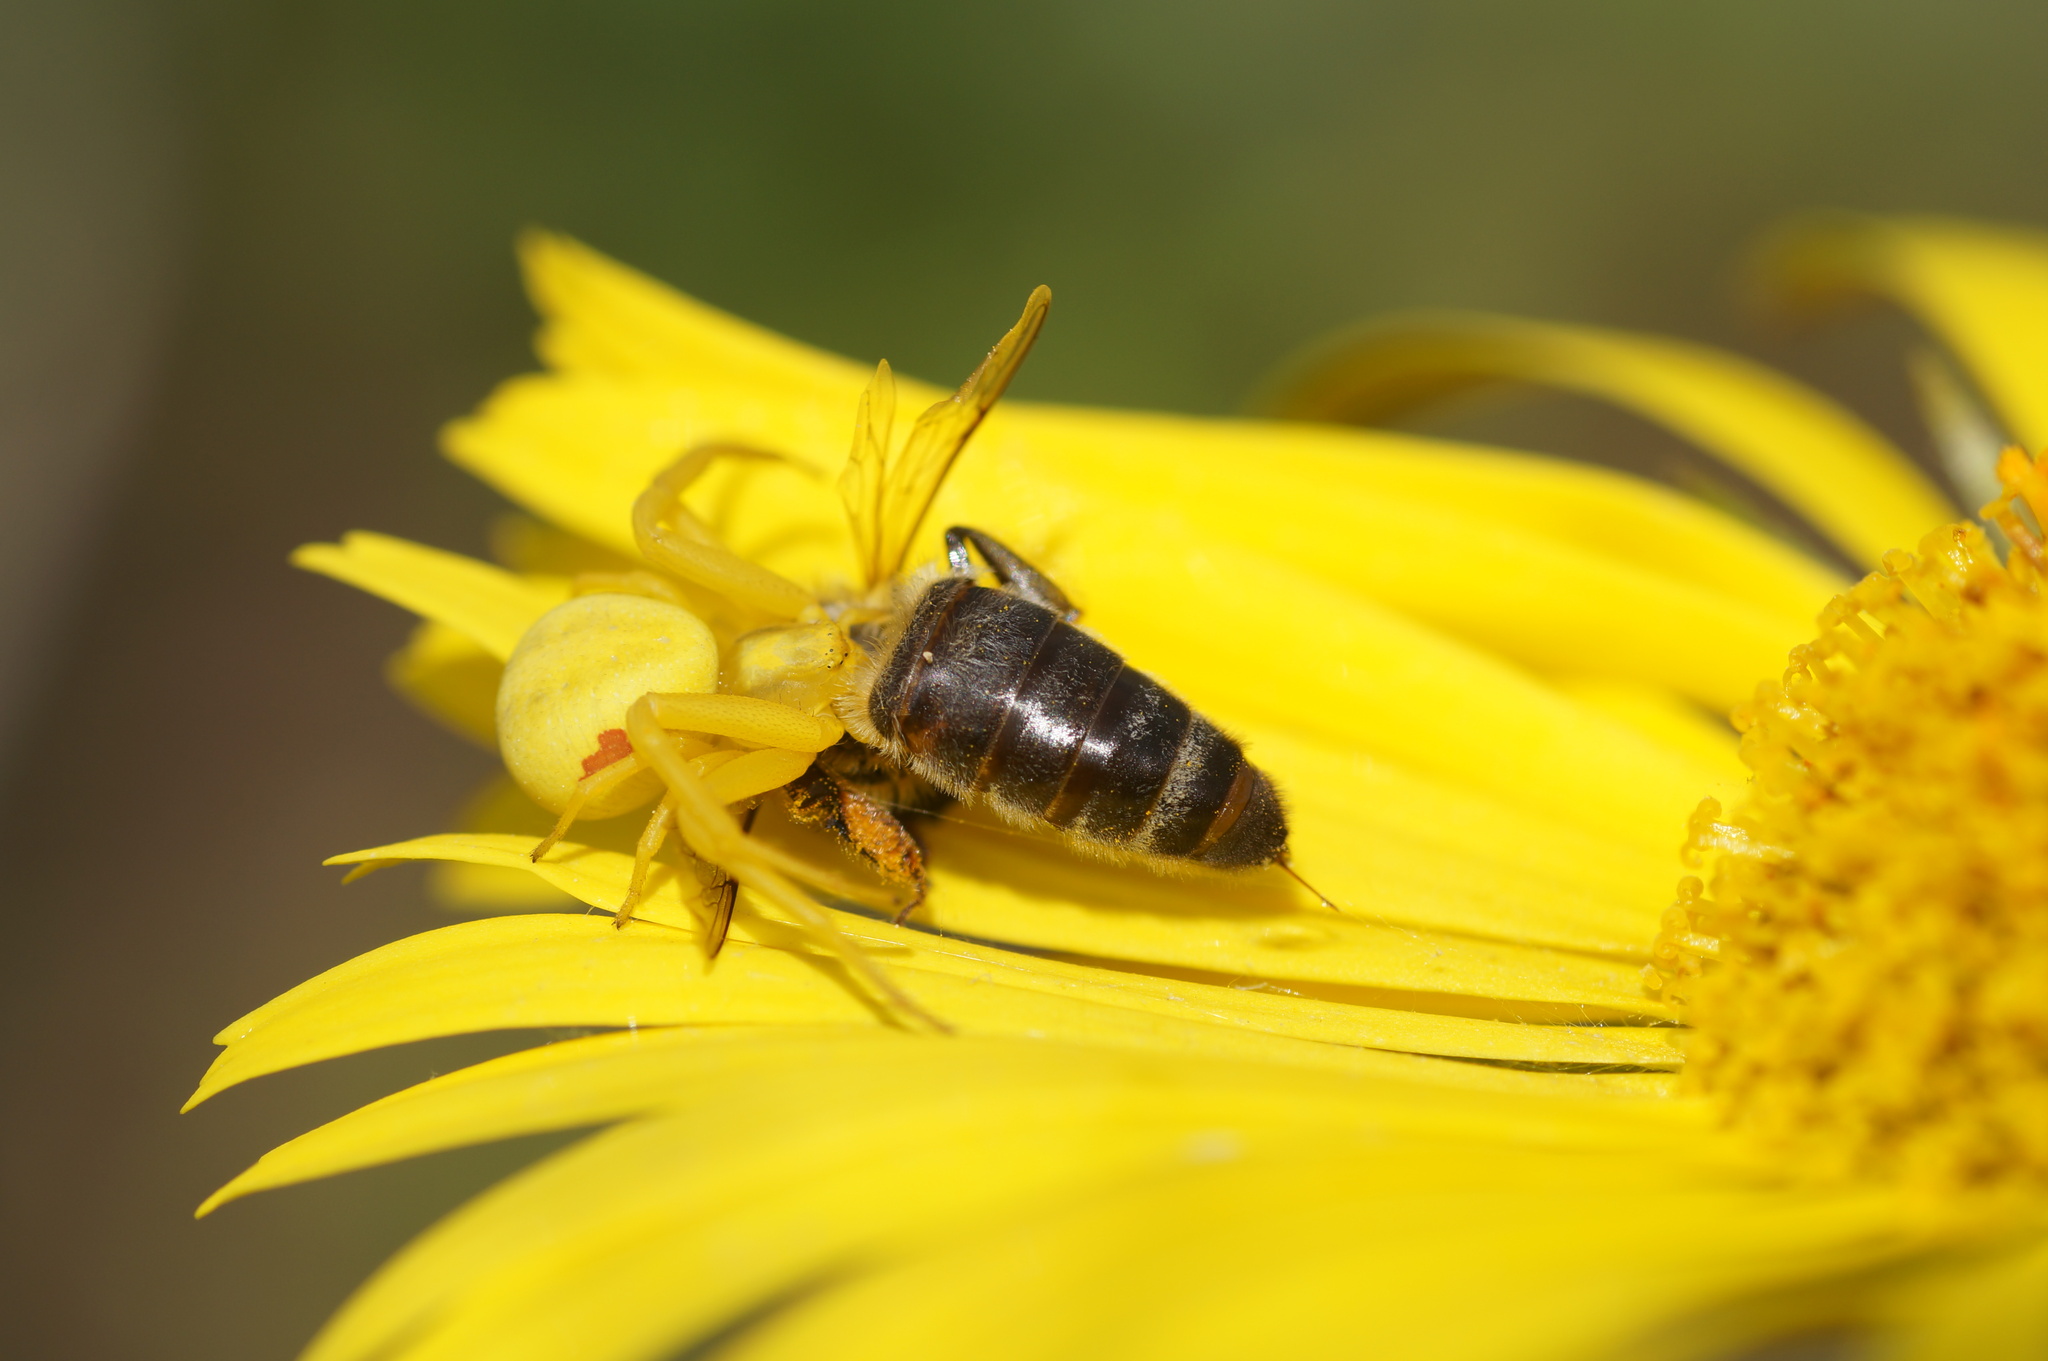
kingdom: Animalia
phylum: Arthropoda
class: Arachnida
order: Araneae
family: Thomisidae
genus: Misumena
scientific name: Misumena vatia
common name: Goldenrod crab spider
